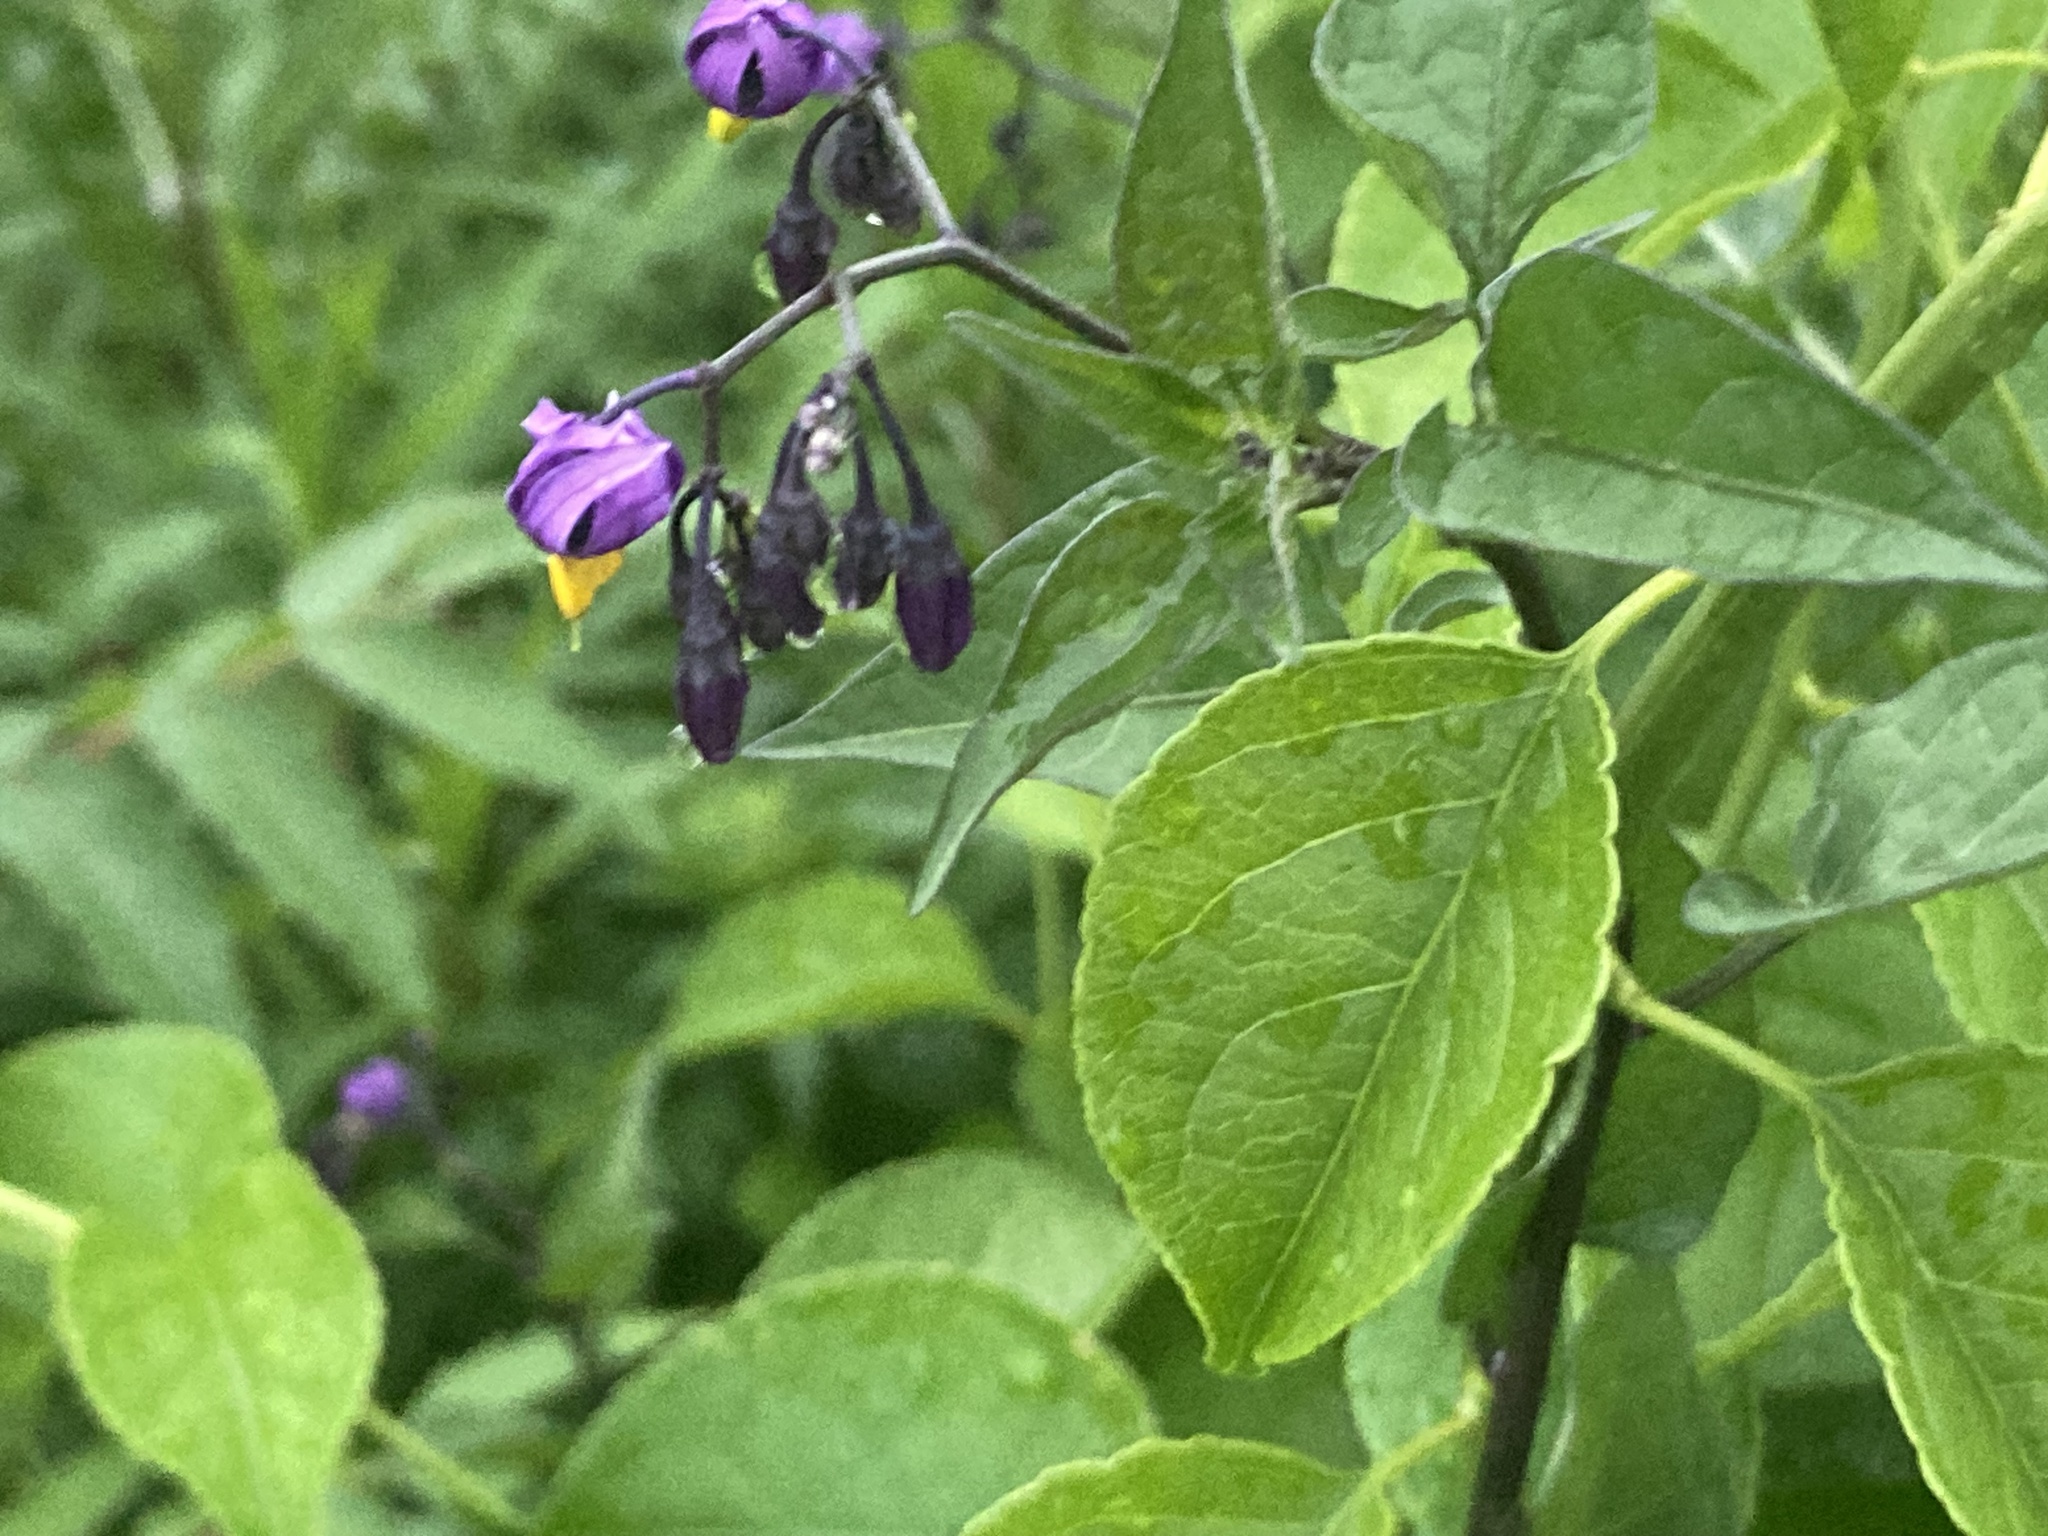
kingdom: Plantae
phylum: Tracheophyta
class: Magnoliopsida
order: Solanales
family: Solanaceae
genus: Solanum
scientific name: Solanum dulcamara
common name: Climbing nightshade
